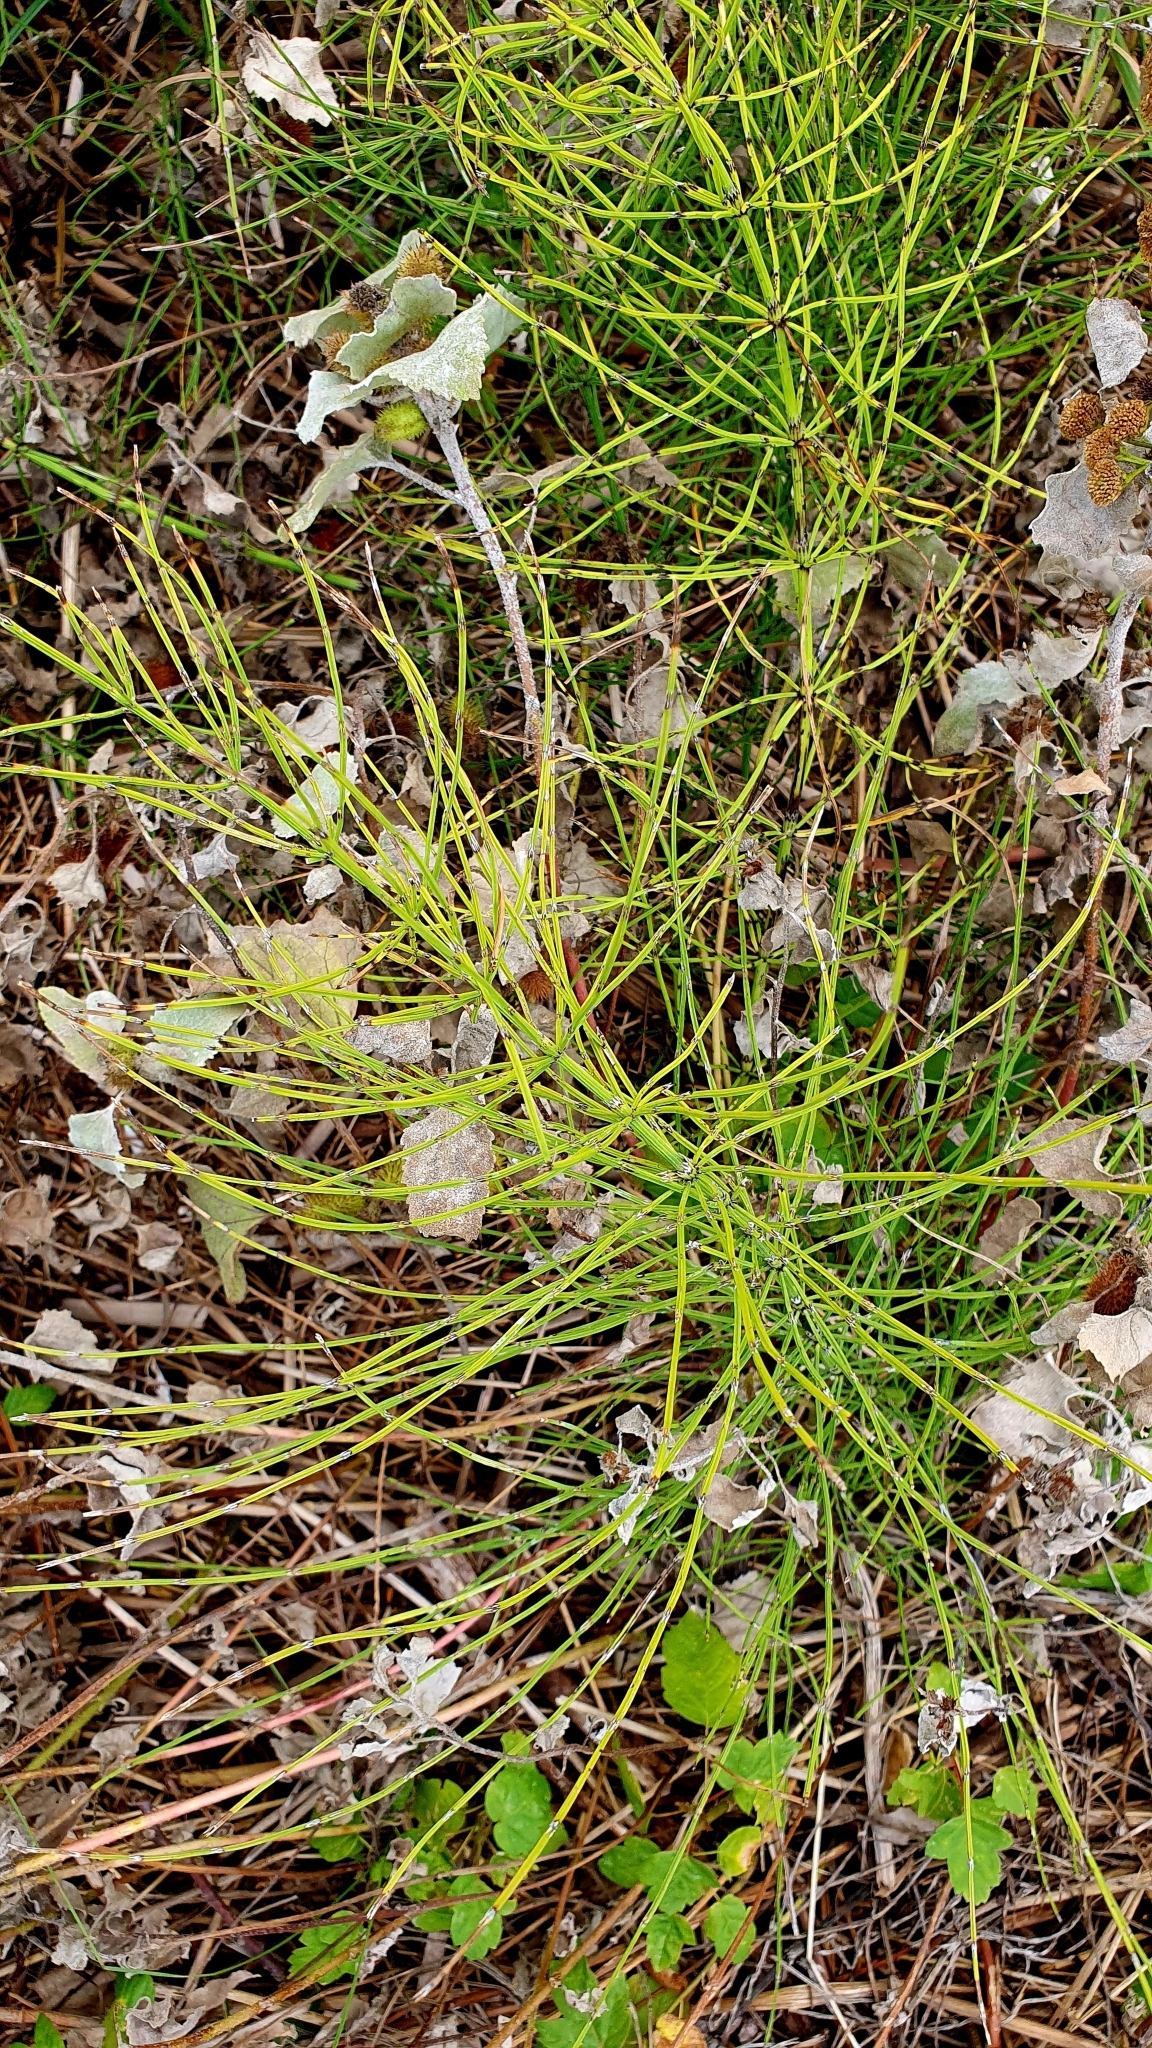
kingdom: Plantae
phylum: Tracheophyta
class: Polypodiopsida
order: Equisetales
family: Equisetaceae
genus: Equisetum
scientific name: Equisetum arvense
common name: Field horsetail
